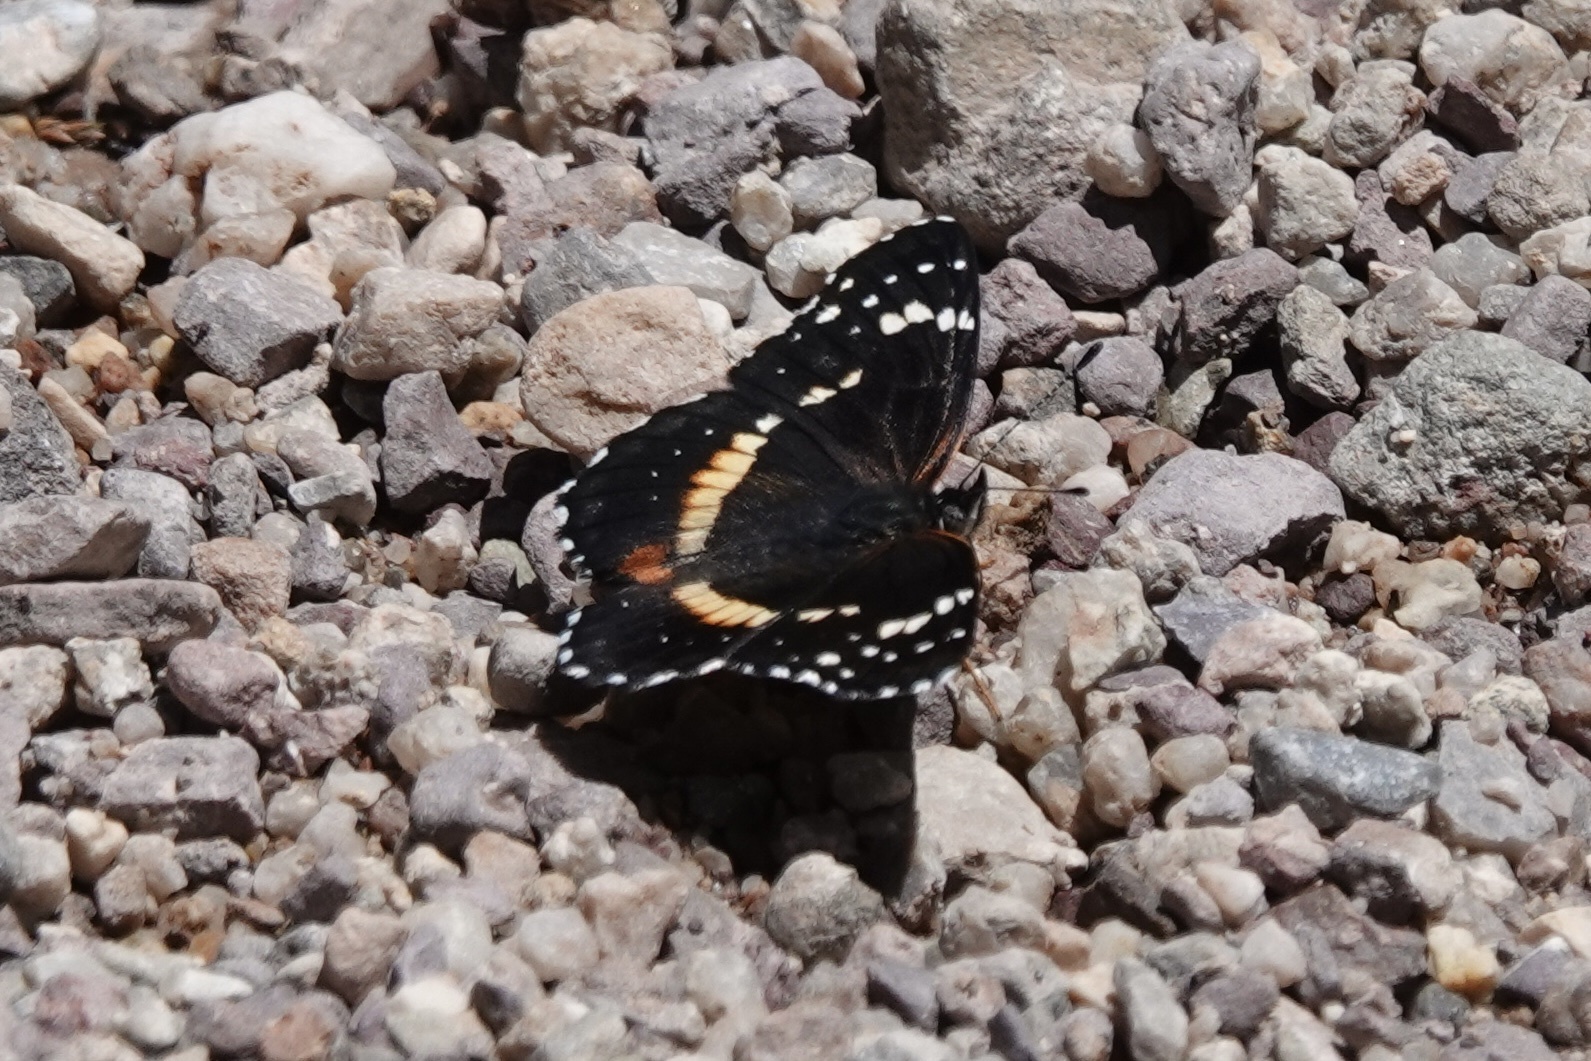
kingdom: Animalia
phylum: Arthropoda
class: Insecta
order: Lepidoptera
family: Nymphalidae
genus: Chlosyne
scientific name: Chlosyne lacinia
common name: Bordered patch
